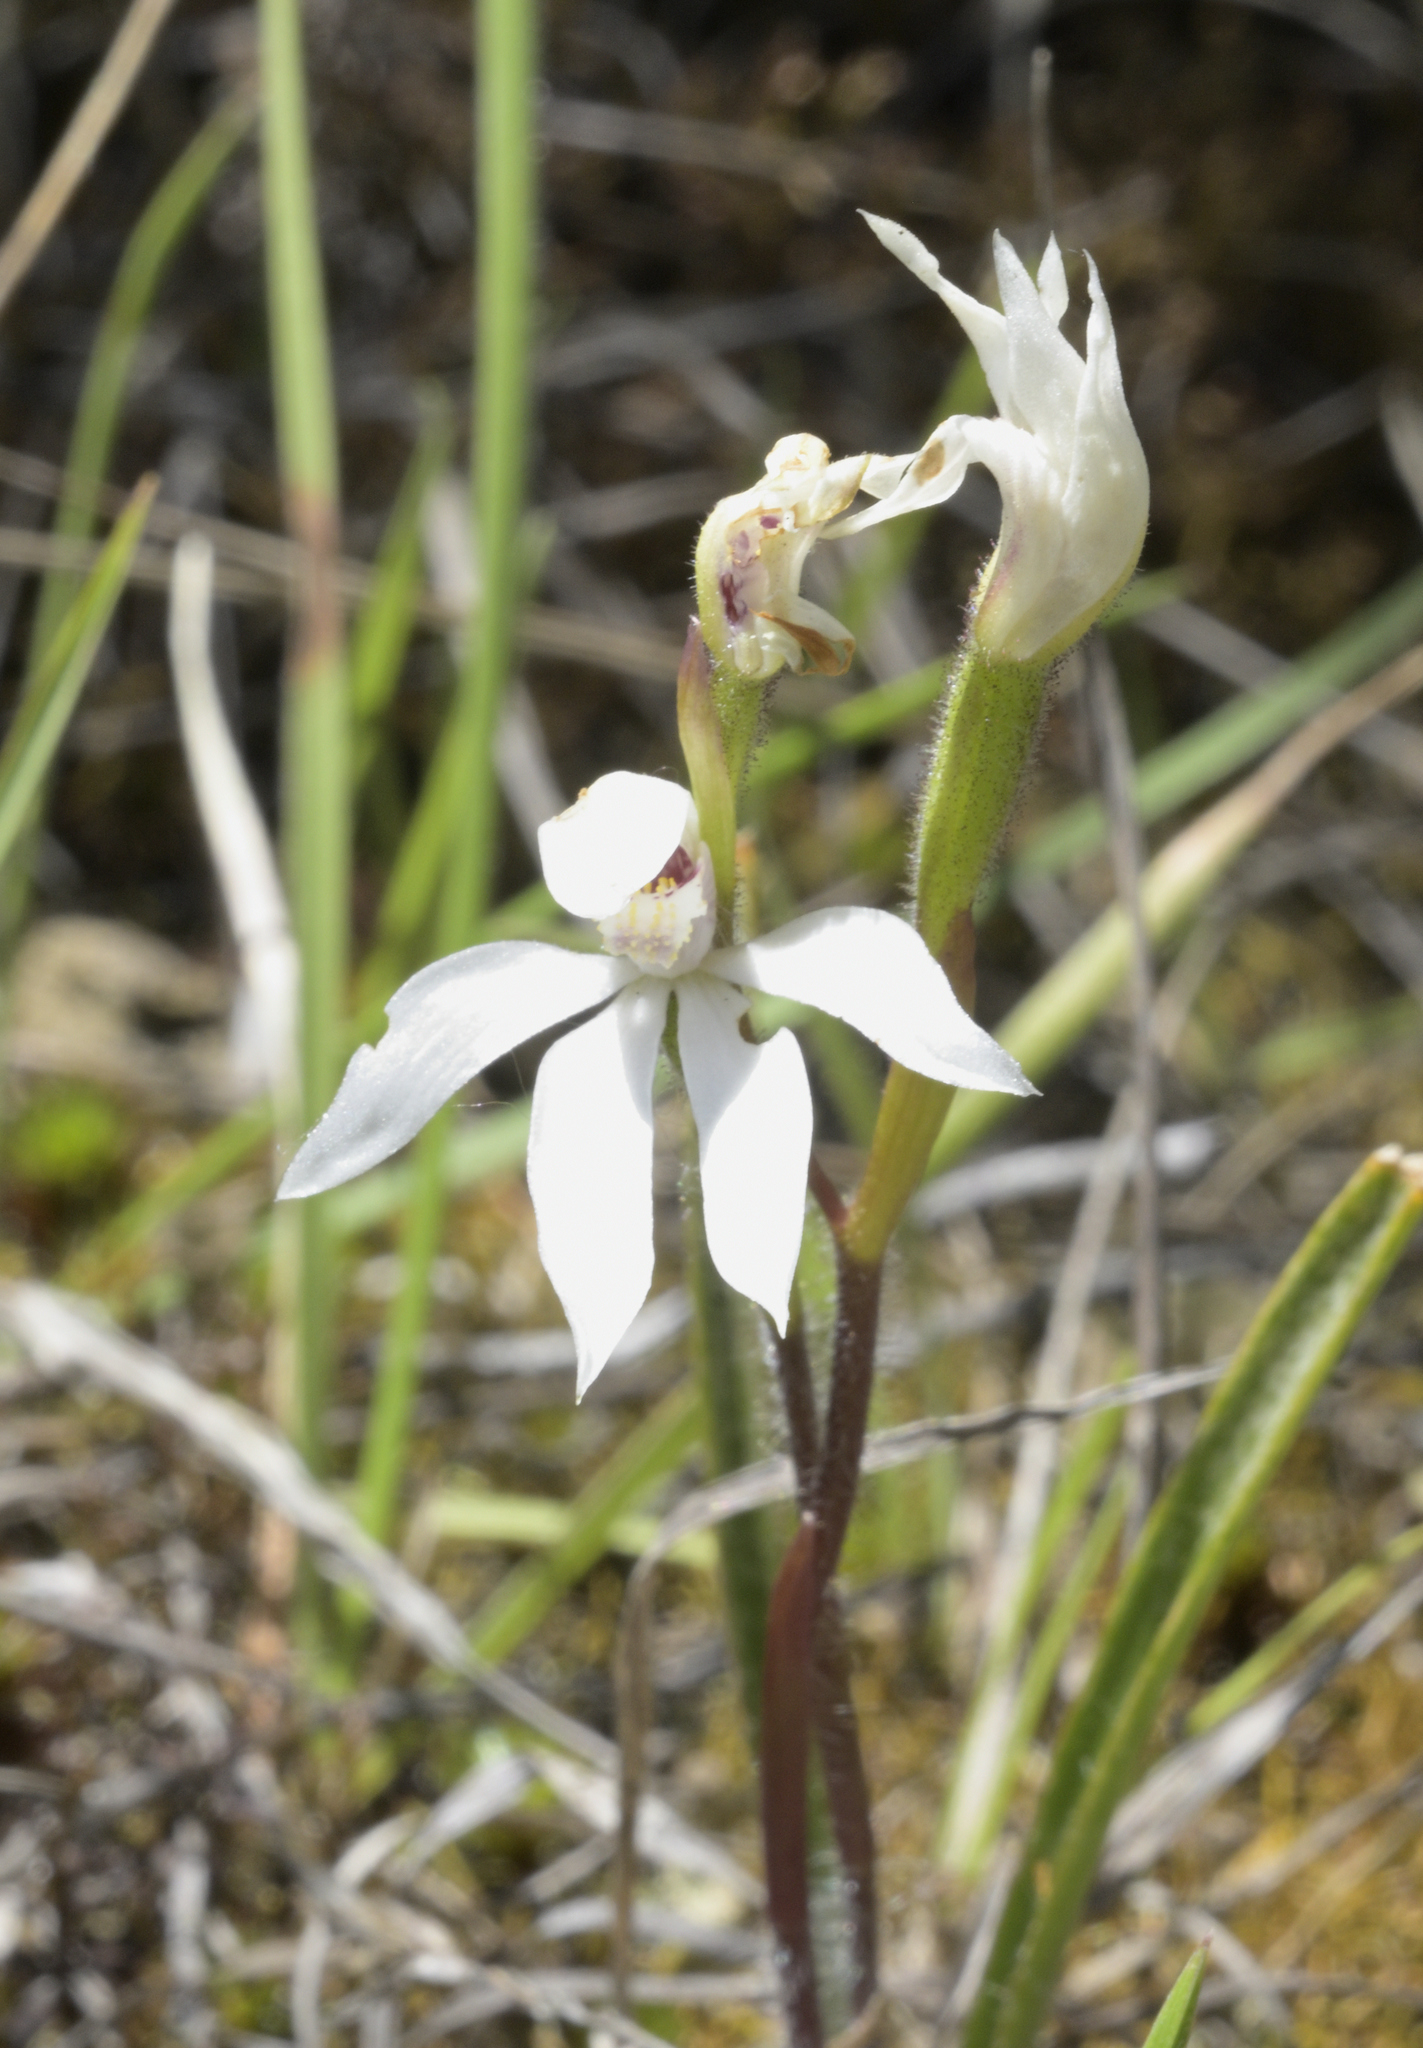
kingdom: Plantae
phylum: Tracheophyta
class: Liliopsida
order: Asparagales
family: Orchidaceae
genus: Caladenia
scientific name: Caladenia lyallii
